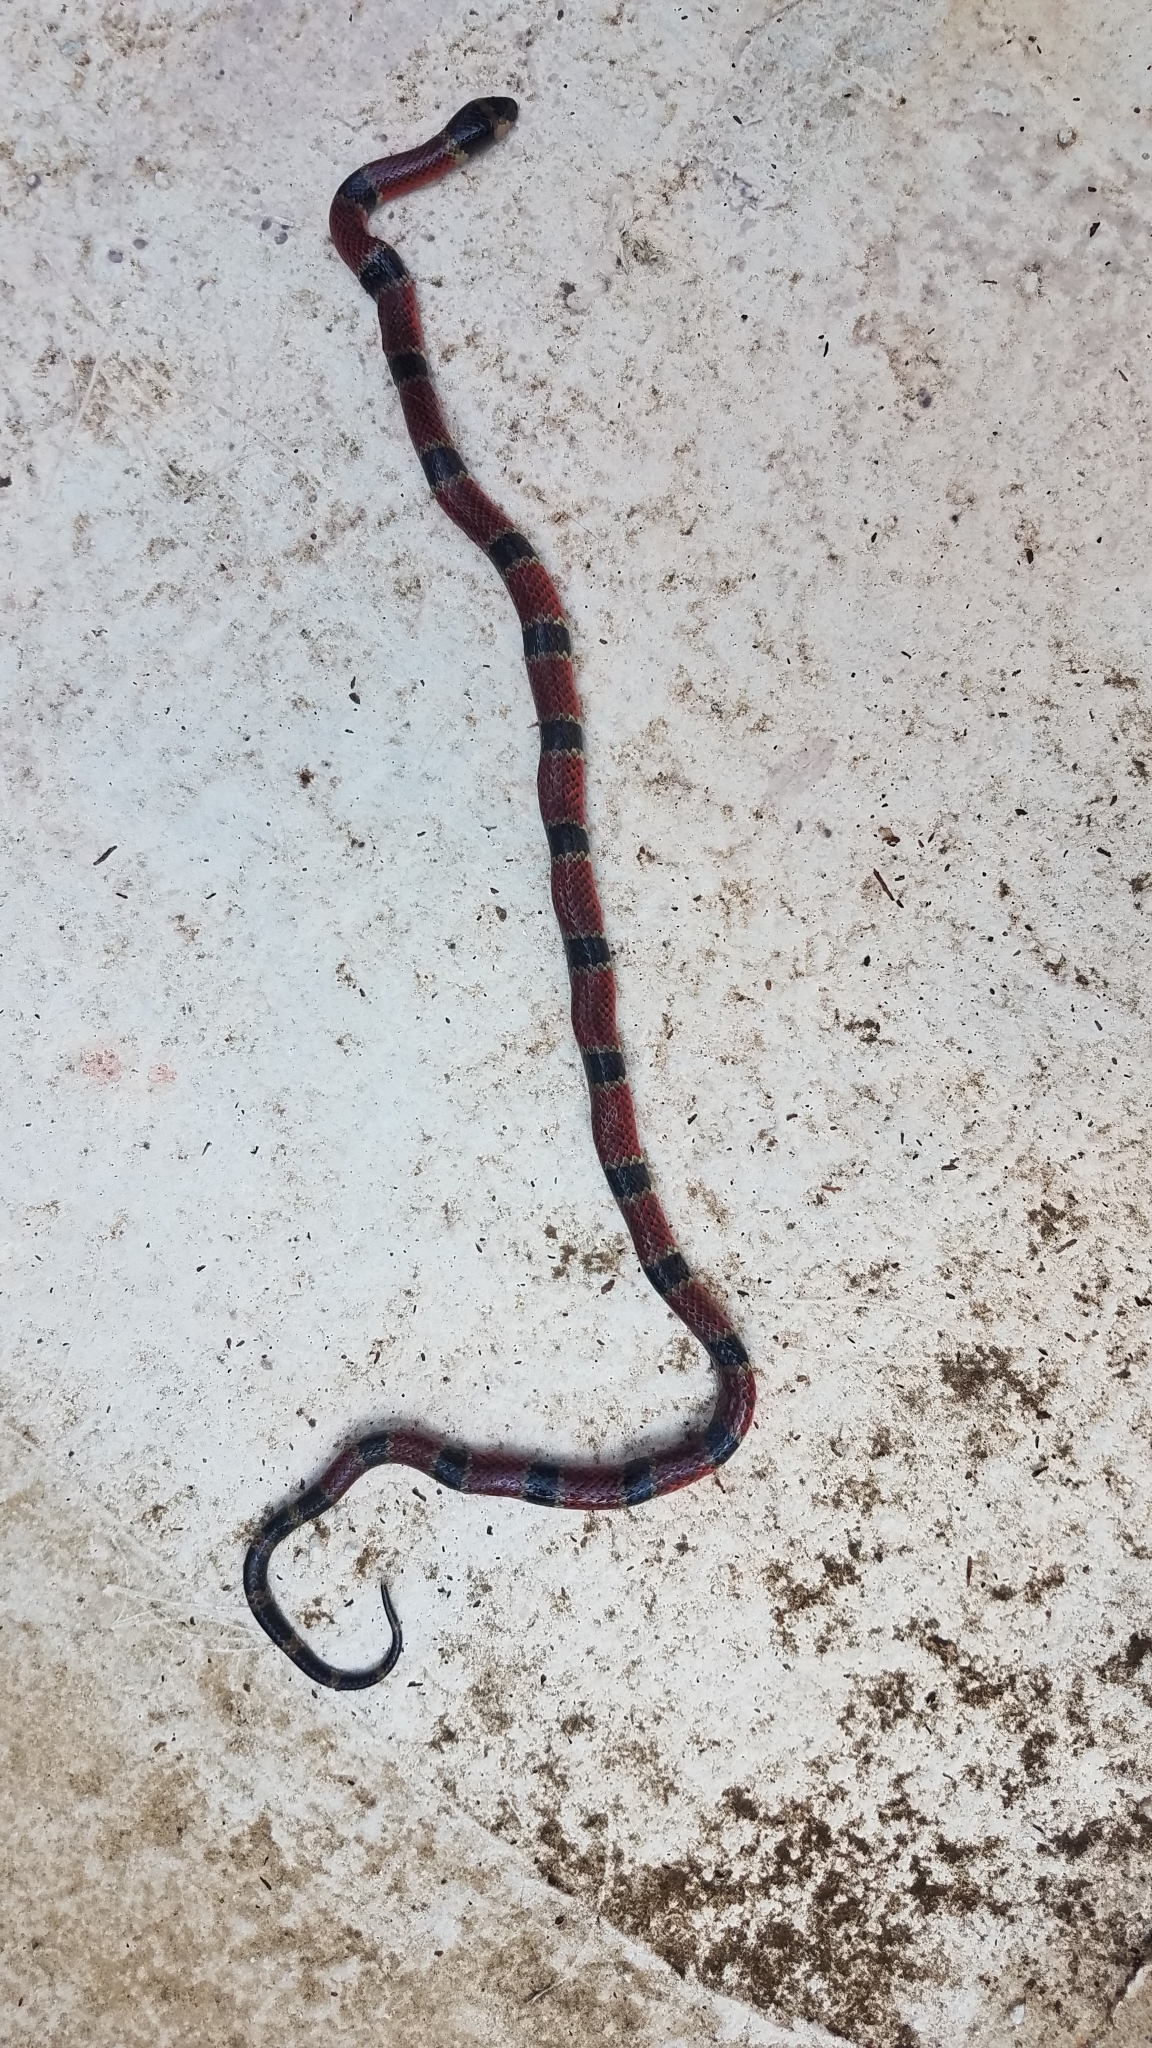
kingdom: Animalia
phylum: Chordata
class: Squamata
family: Elapidae
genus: Micrurus
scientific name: Micrurus nigrocinctus
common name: Babaspul [babaspul]
